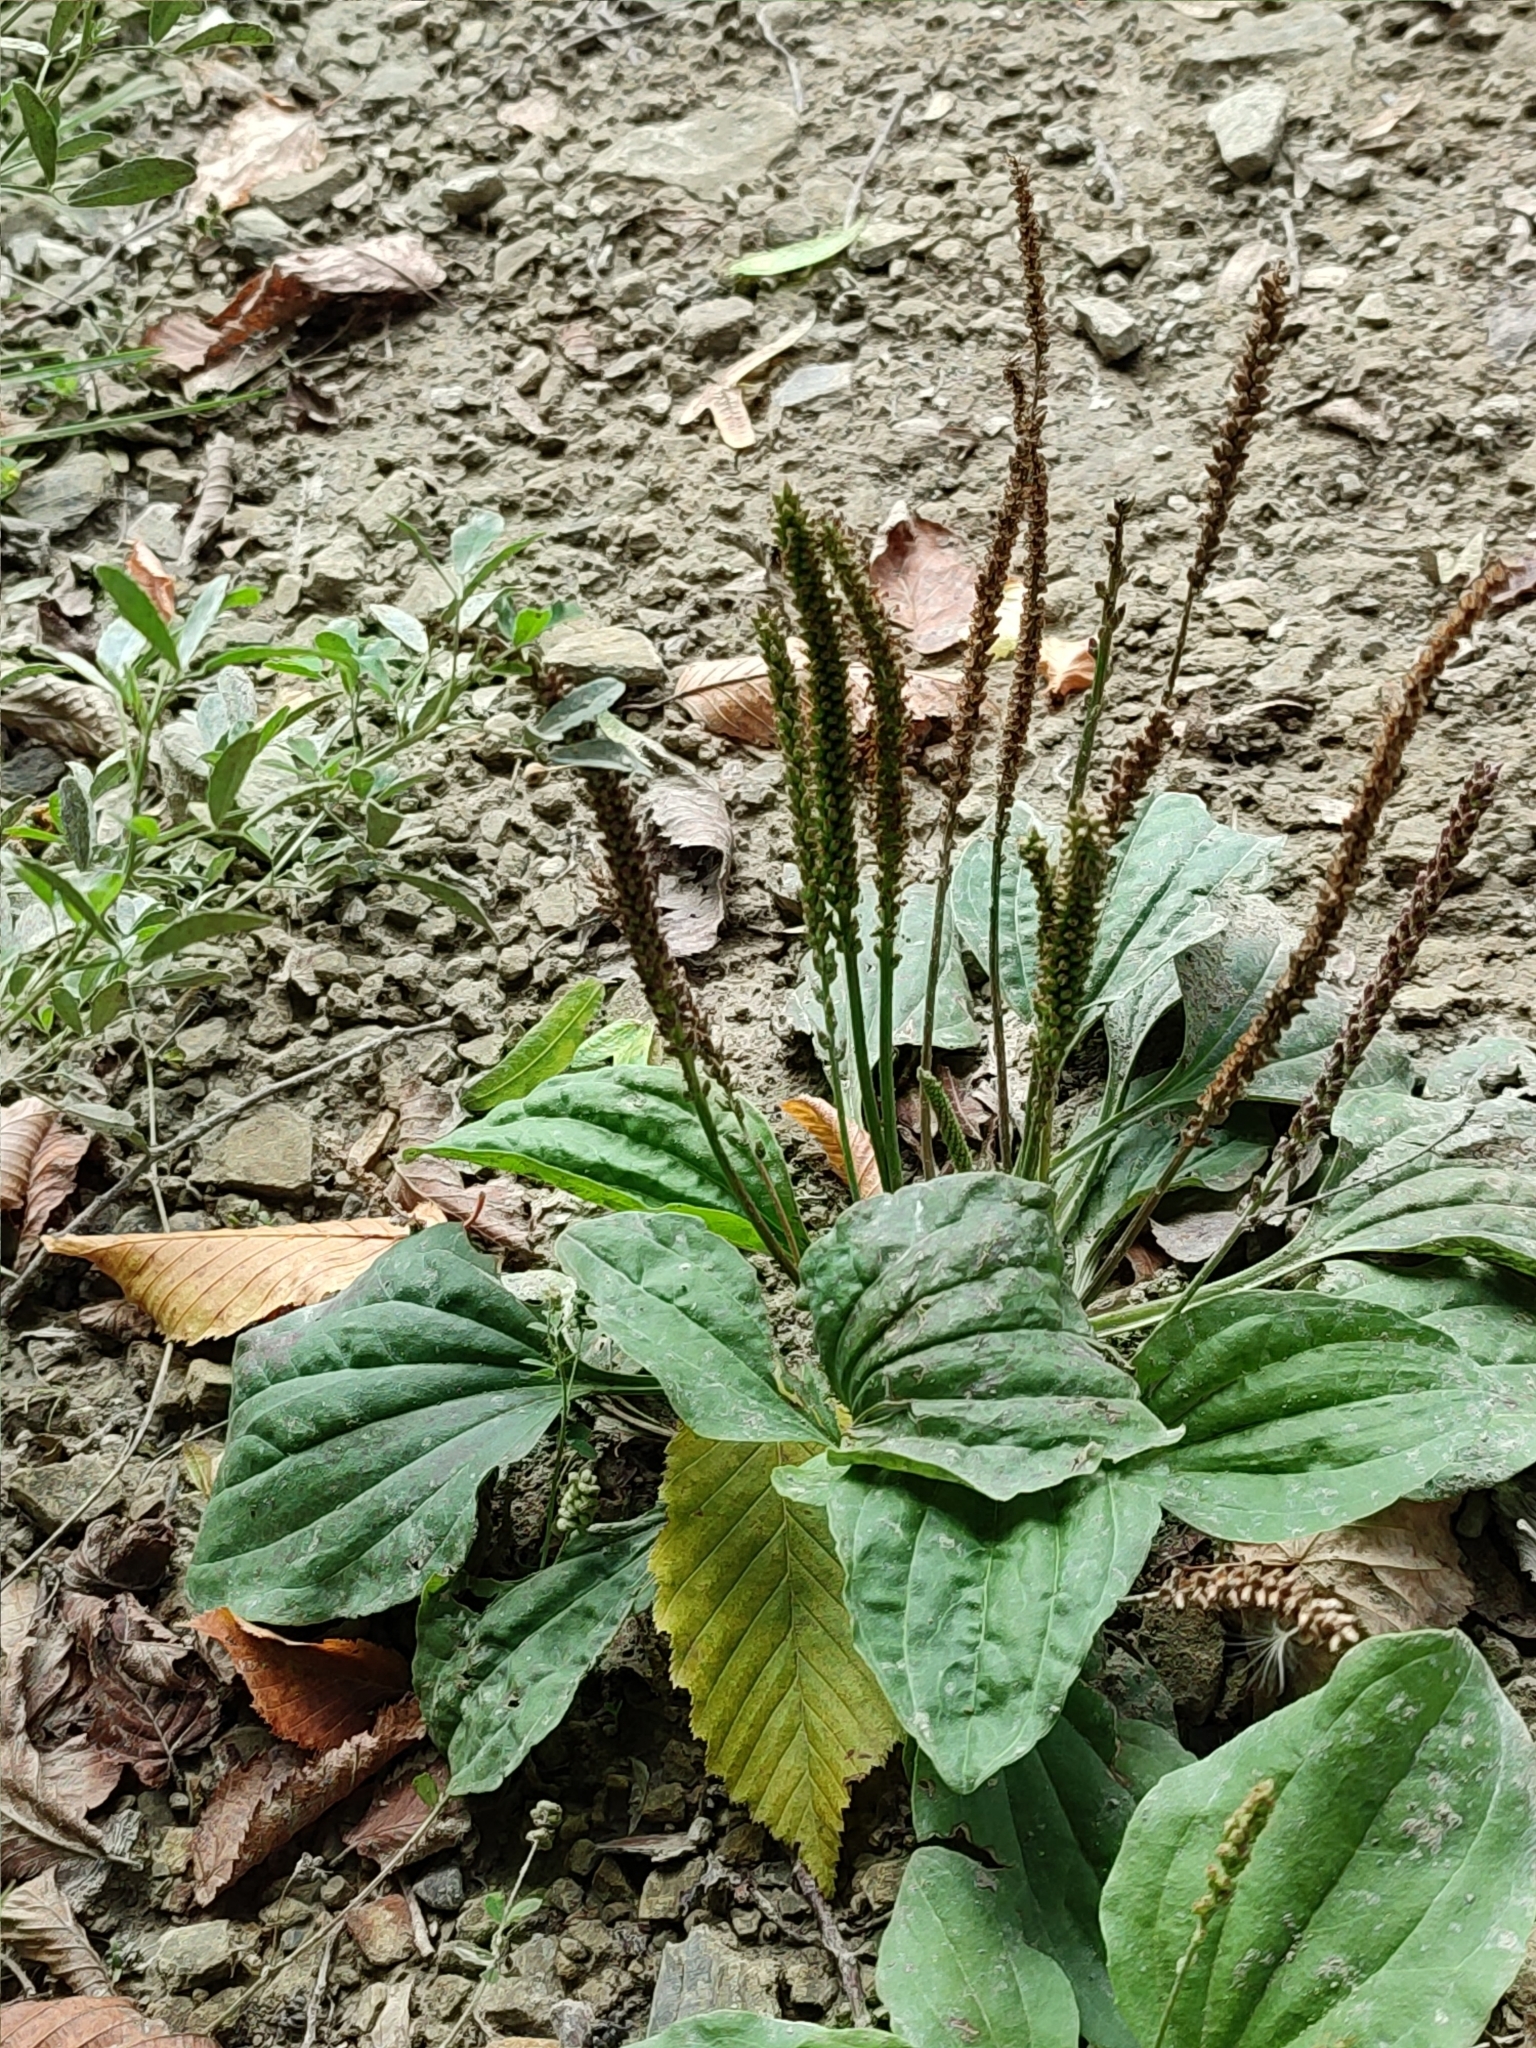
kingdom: Plantae
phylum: Tracheophyta
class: Magnoliopsida
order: Lamiales
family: Plantaginaceae
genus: Plantago
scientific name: Plantago major
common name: Common plantain
